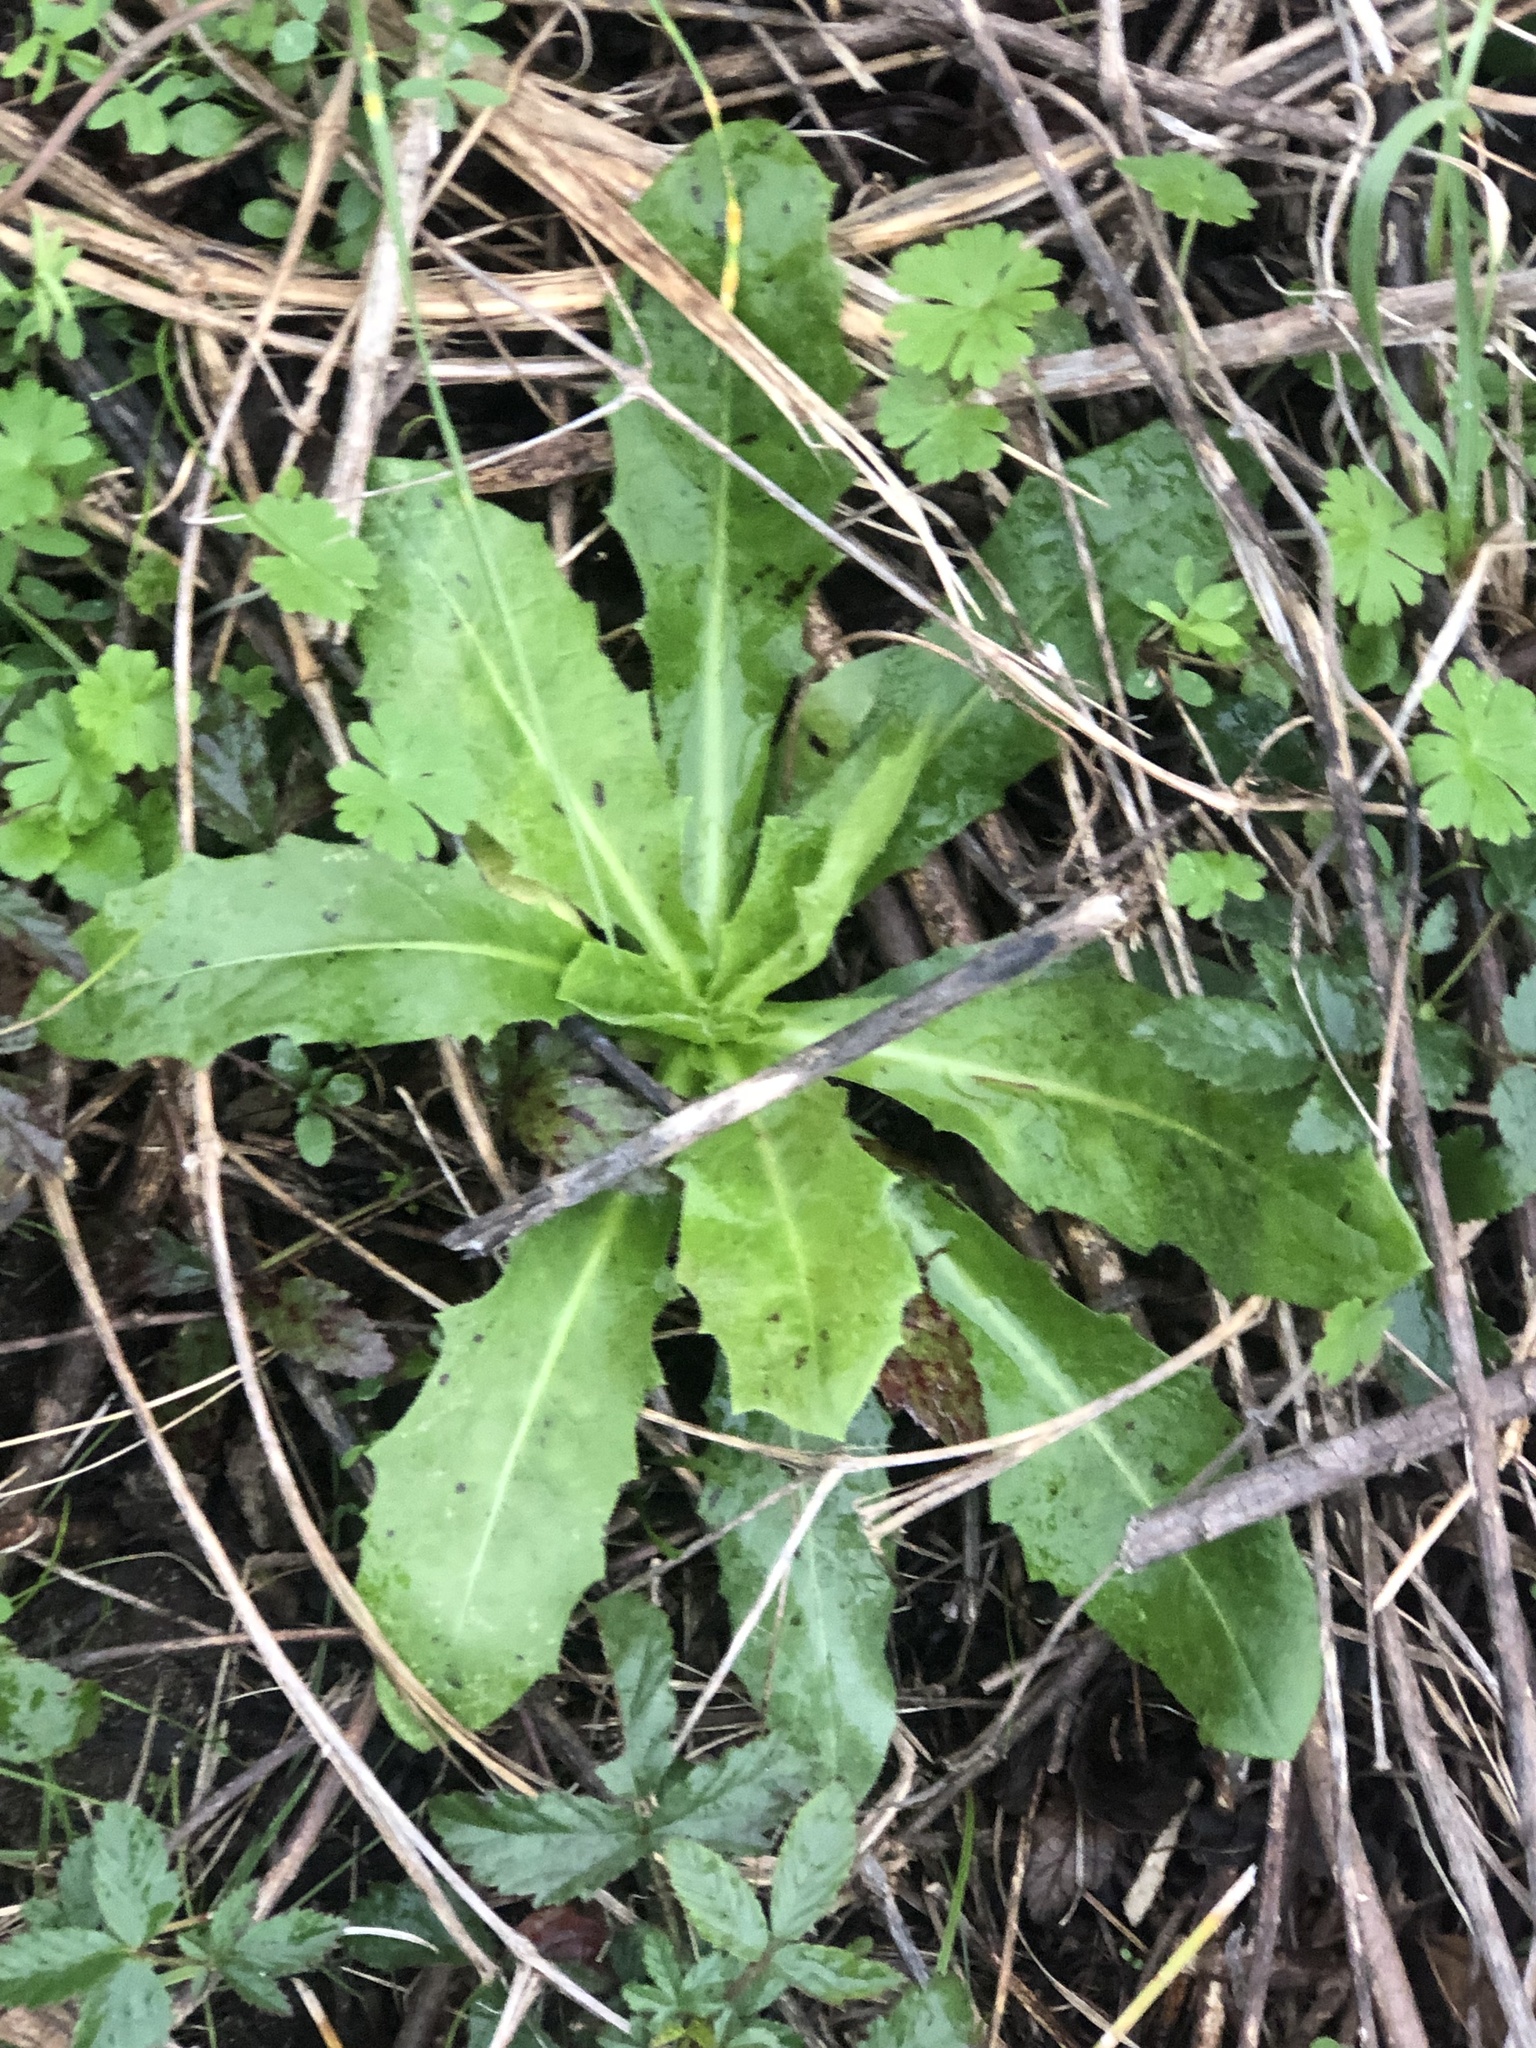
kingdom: Plantae
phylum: Tracheophyta
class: Magnoliopsida
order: Asterales
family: Asteraceae
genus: Hypochaeris
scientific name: Hypochaeris chillensis
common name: Brazilian cat's ear
